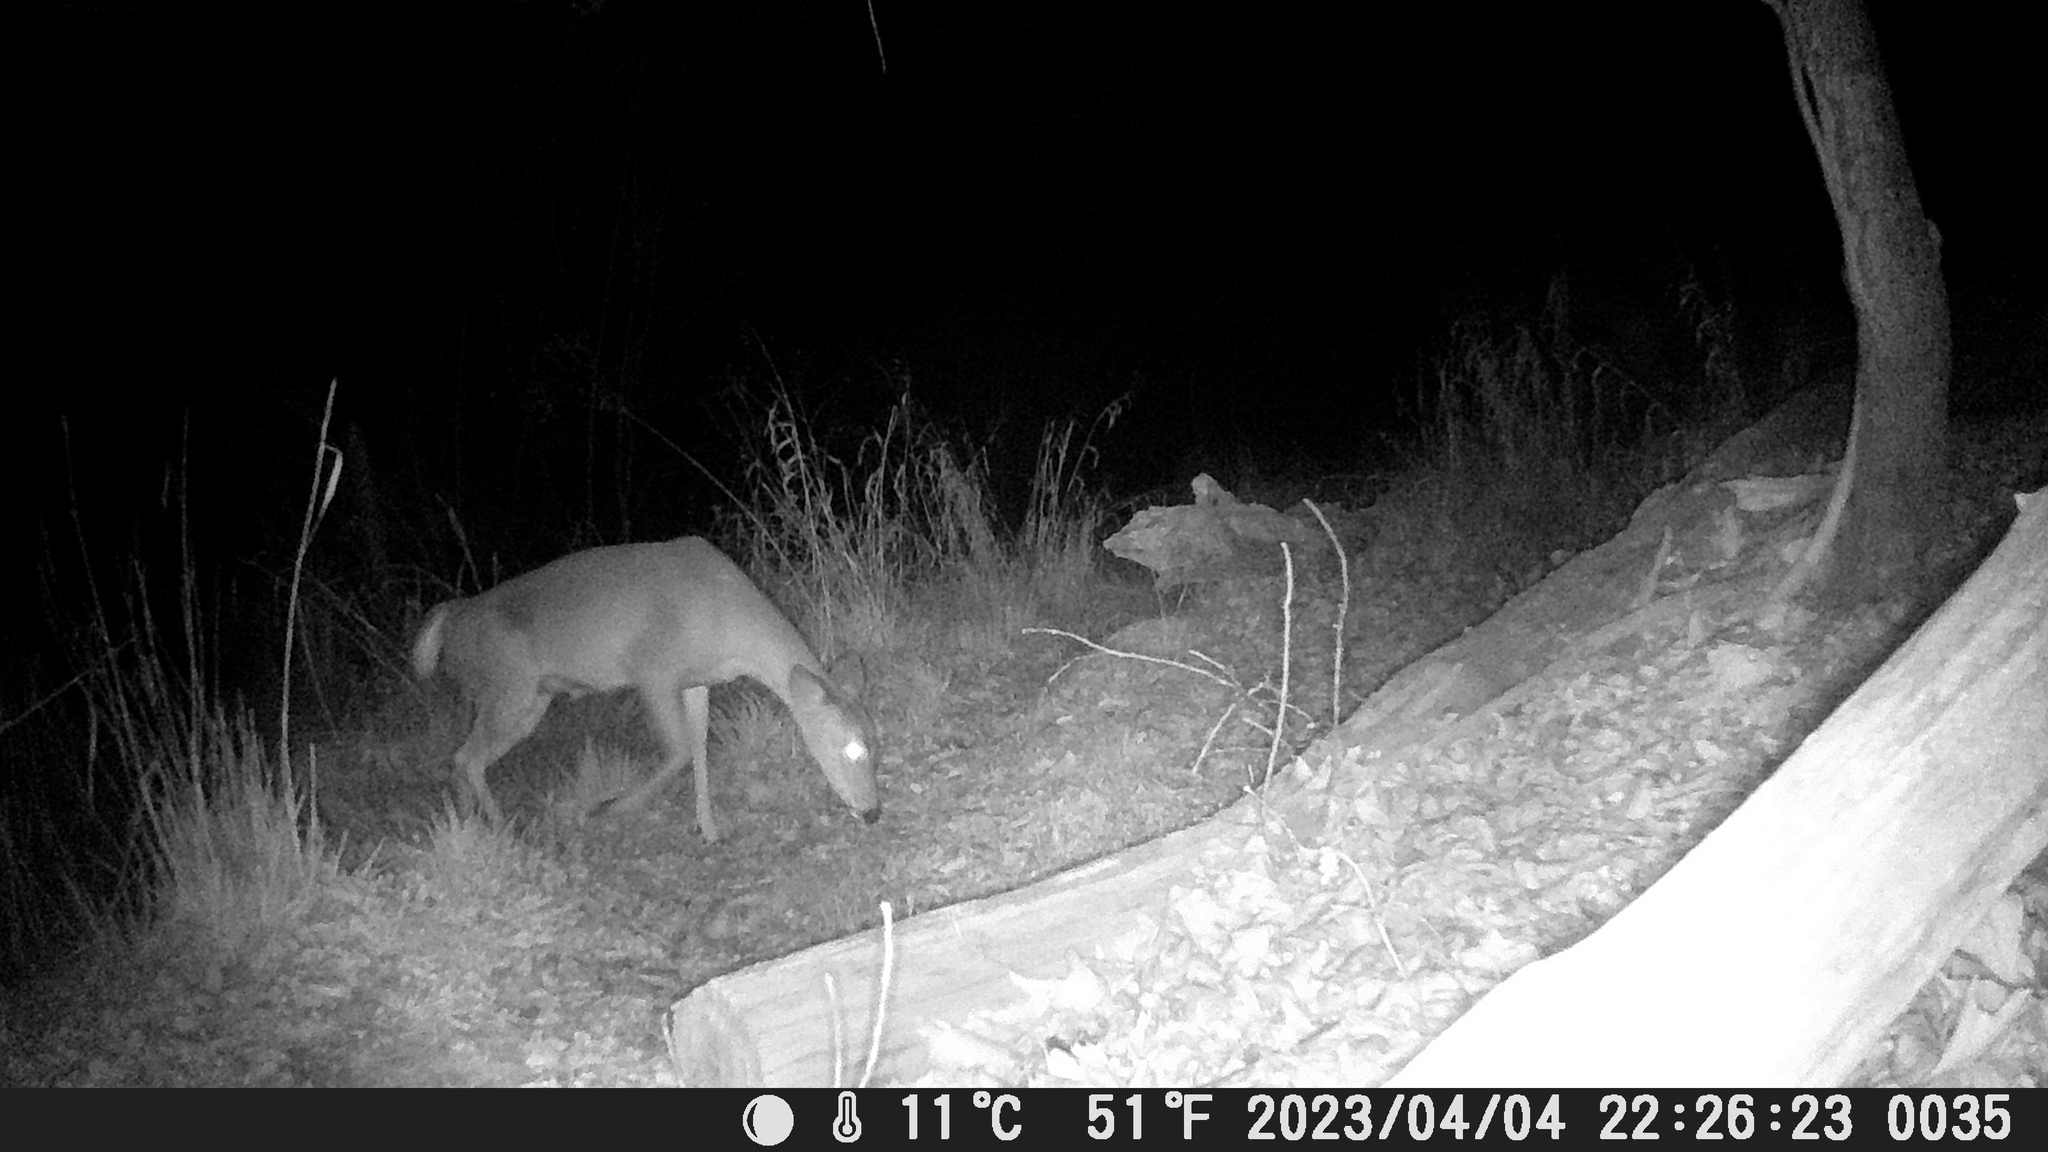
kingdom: Animalia
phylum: Chordata
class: Mammalia
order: Artiodactyla
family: Cervidae
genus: Odocoileus
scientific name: Odocoileus virginianus
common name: White-tailed deer
